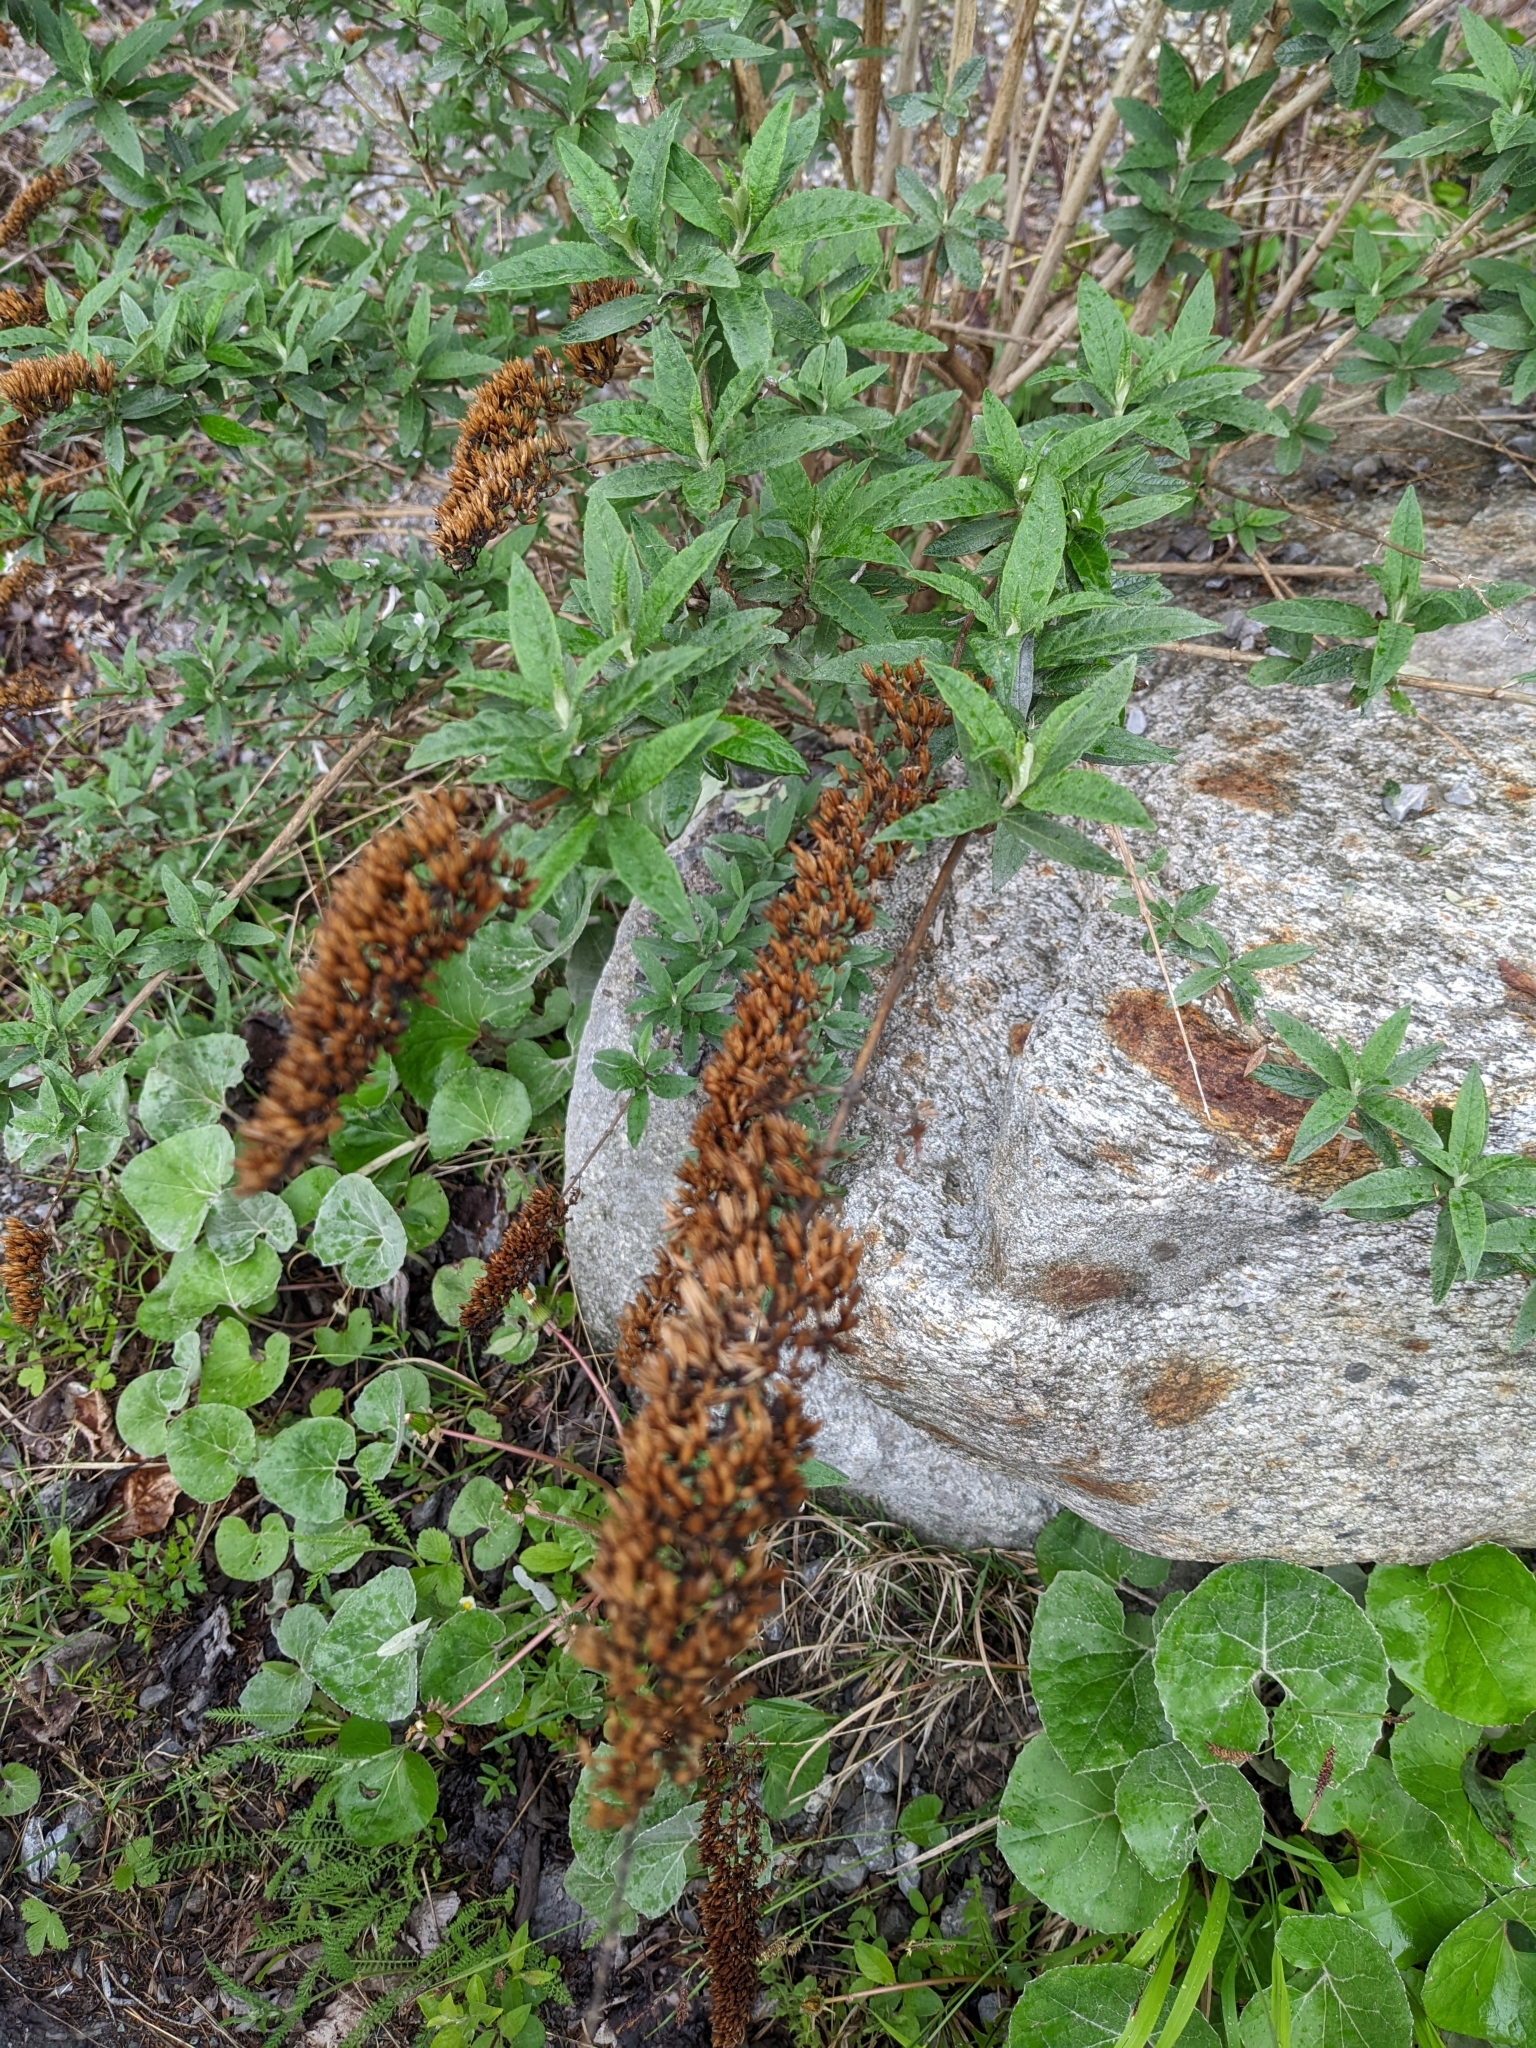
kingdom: Plantae
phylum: Tracheophyta
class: Magnoliopsida
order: Lamiales
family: Scrophulariaceae
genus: Buddleja
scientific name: Buddleja davidii
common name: Butterfly-bush
